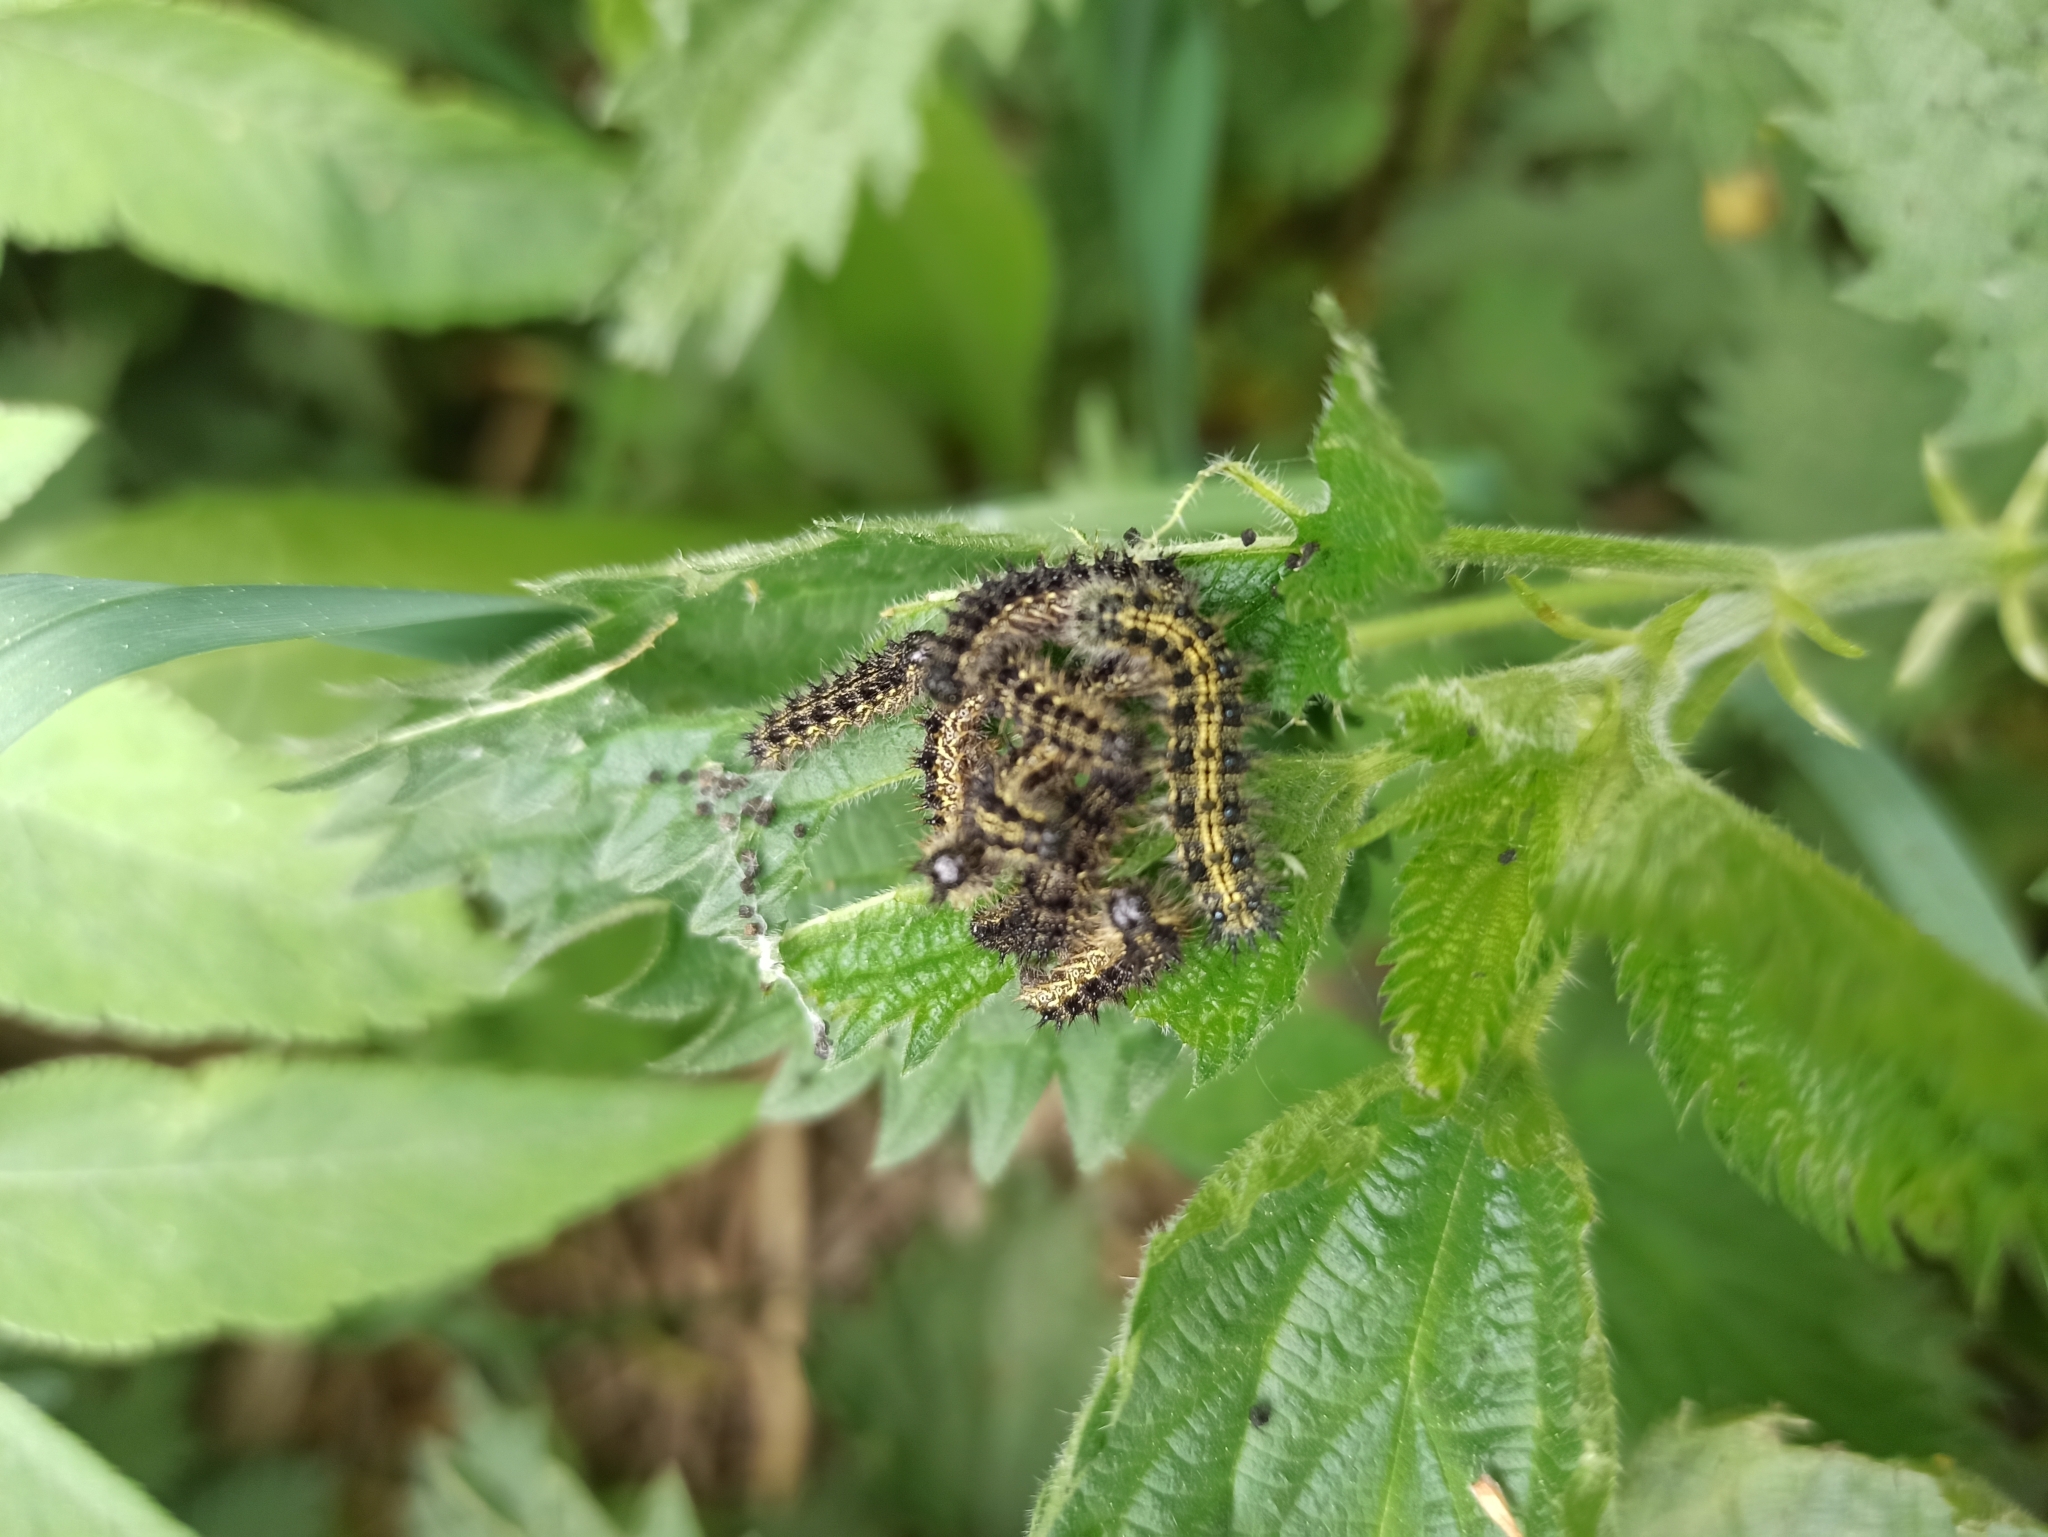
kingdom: Animalia
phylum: Arthropoda
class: Insecta
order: Lepidoptera
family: Nymphalidae
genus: Aglais
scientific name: Aglais urticae
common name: Small tortoiseshell
